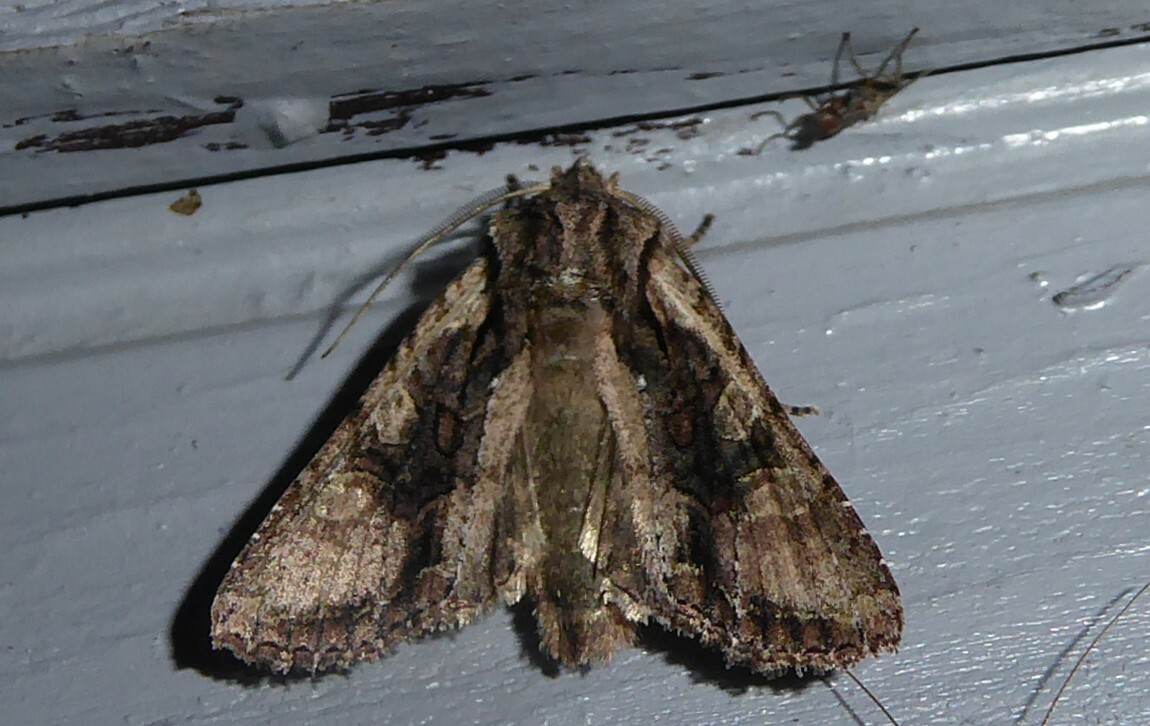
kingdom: Animalia
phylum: Arthropoda
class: Insecta
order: Lepidoptera
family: Noctuidae
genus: Ichneutica
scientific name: Ichneutica mutans
